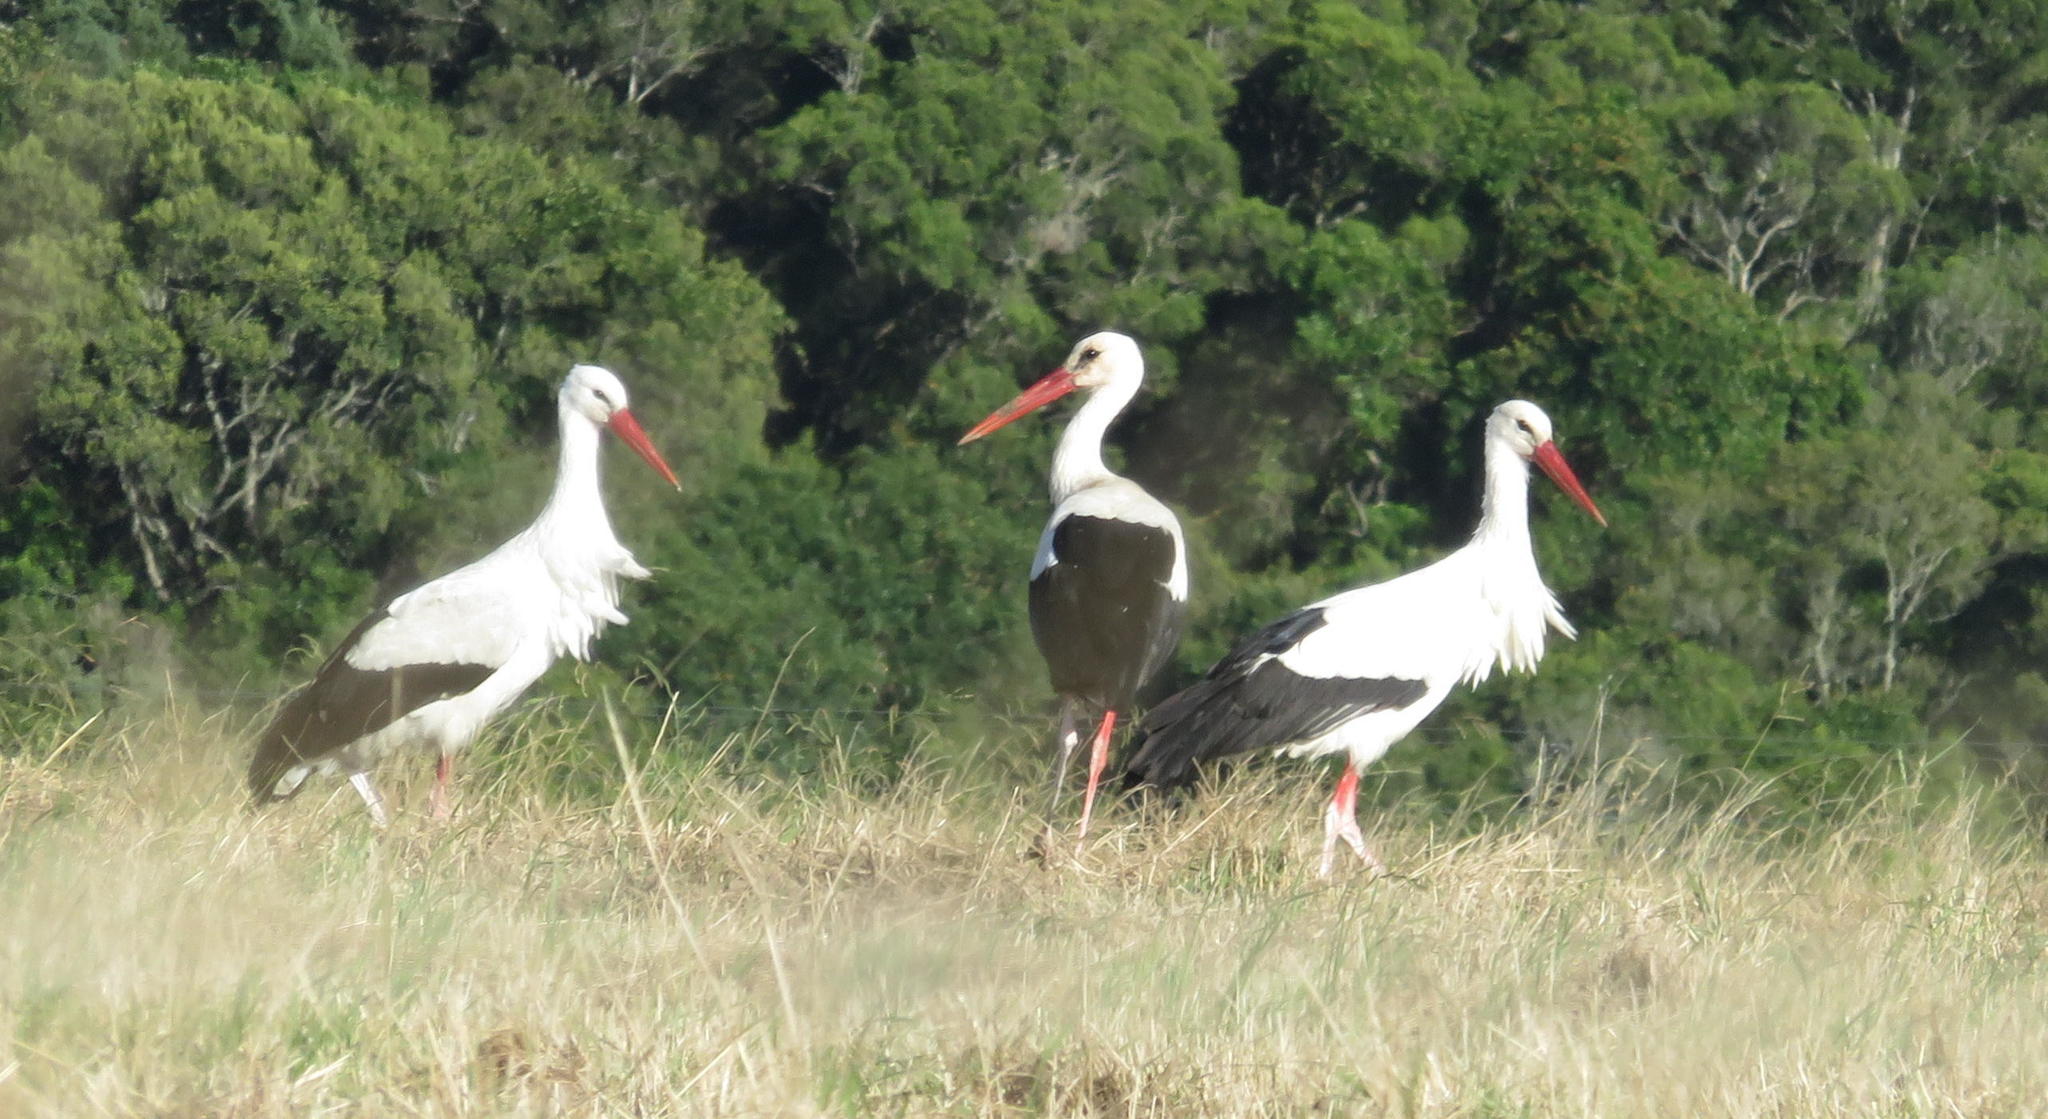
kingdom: Animalia
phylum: Chordata
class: Aves
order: Ciconiiformes
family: Ciconiidae
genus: Ciconia
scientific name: Ciconia ciconia
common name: White stork
